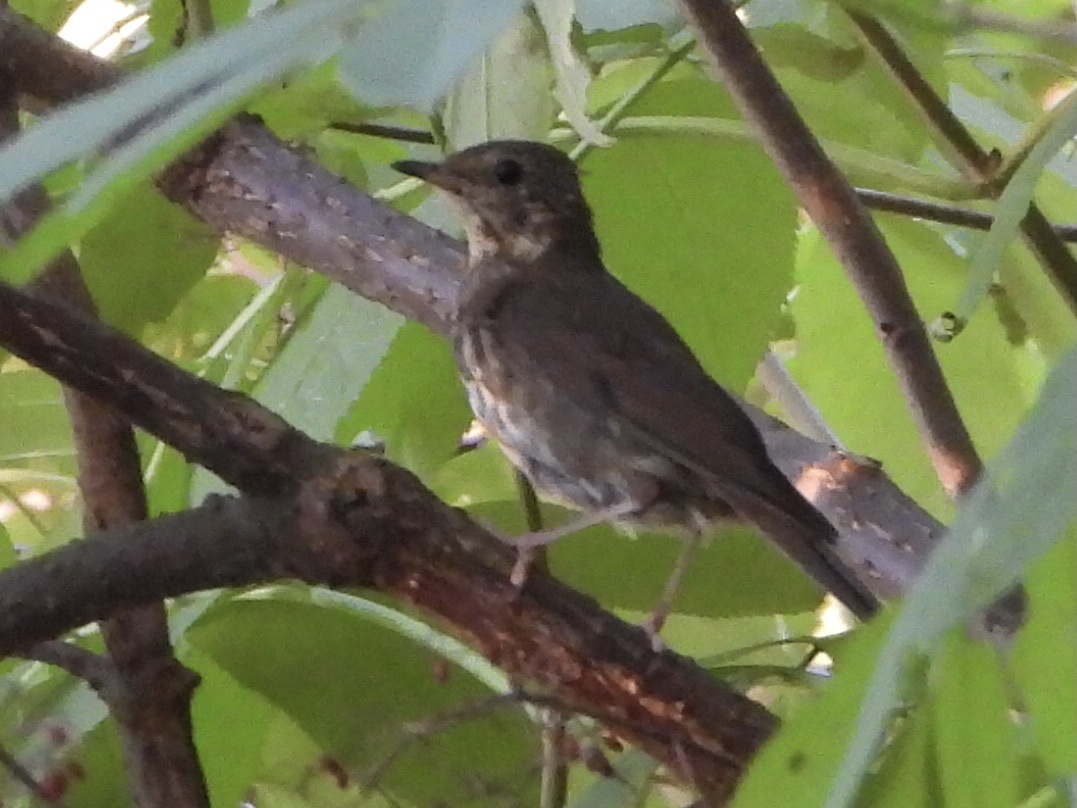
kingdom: Animalia
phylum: Chordata
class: Aves
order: Passeriformes
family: Turdidae
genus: Catharus
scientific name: Catharus ustulatus
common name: Swainson's thrush
